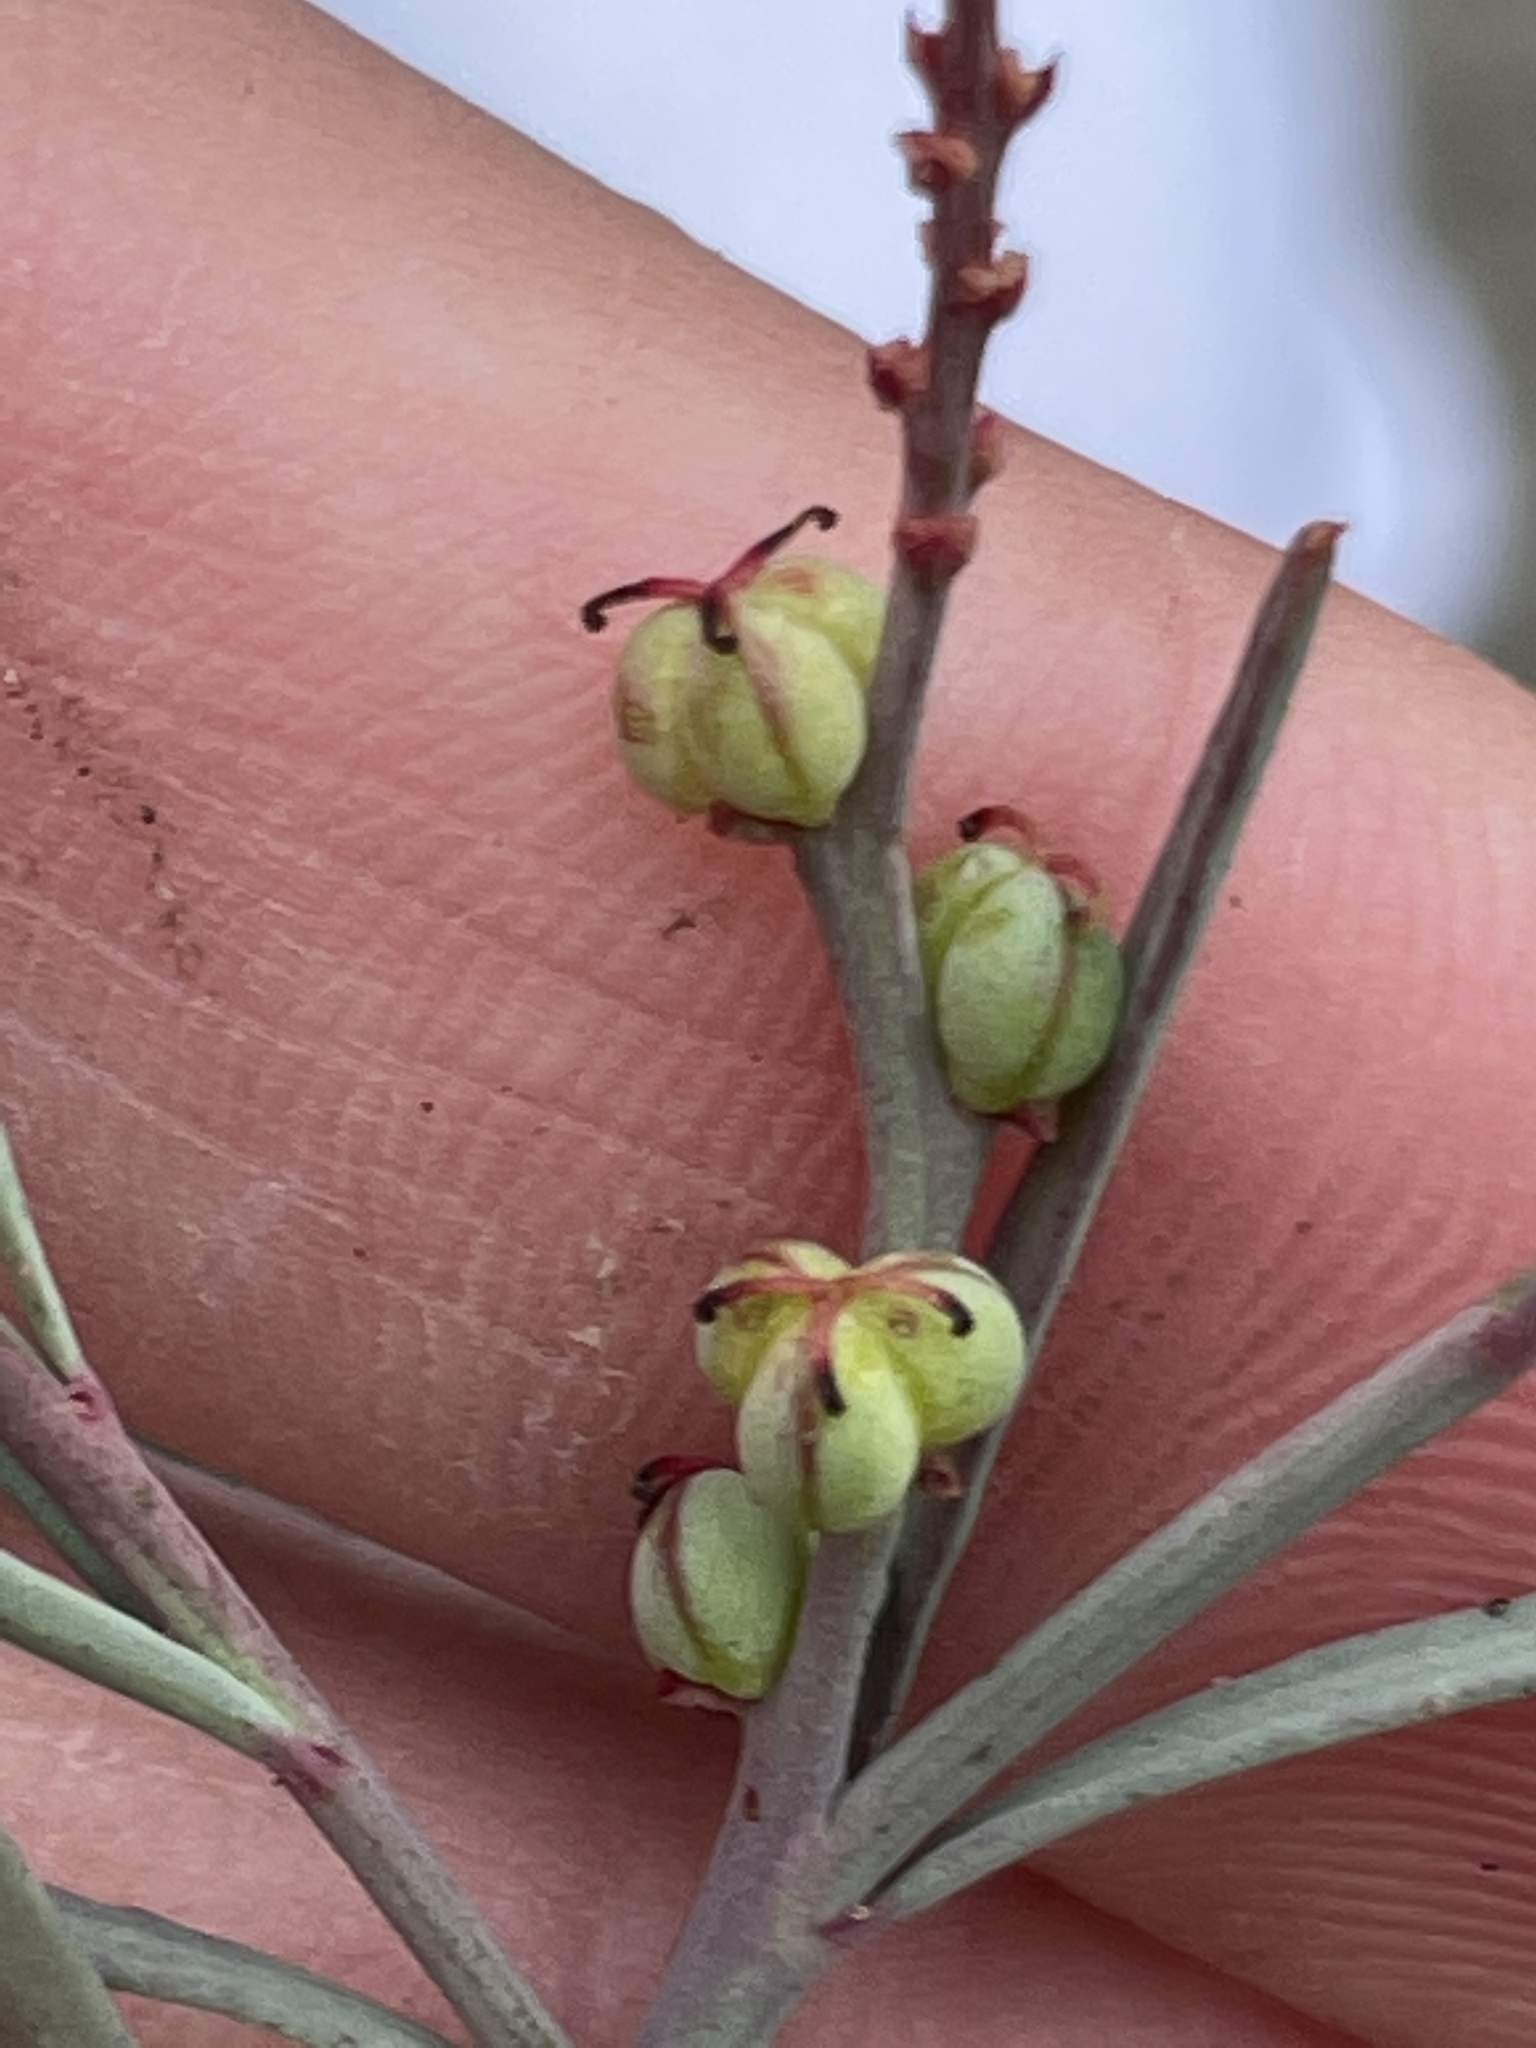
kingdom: Plantae
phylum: Tracheophyta
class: Magnoliopsida
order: Malpighiales
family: Euphorbiaceae
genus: Stillingia
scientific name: Stillingia linearifolia
